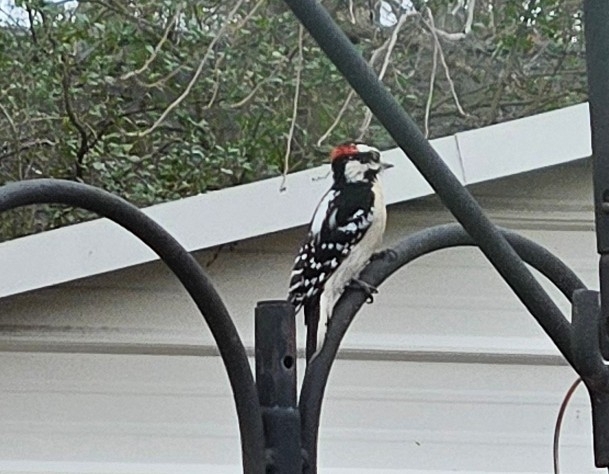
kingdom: Animalia
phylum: Chordata
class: Aves
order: Piciformes
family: Picidae
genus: Dryobates
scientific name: Dryobates pubescens
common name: Downy woodpecker
